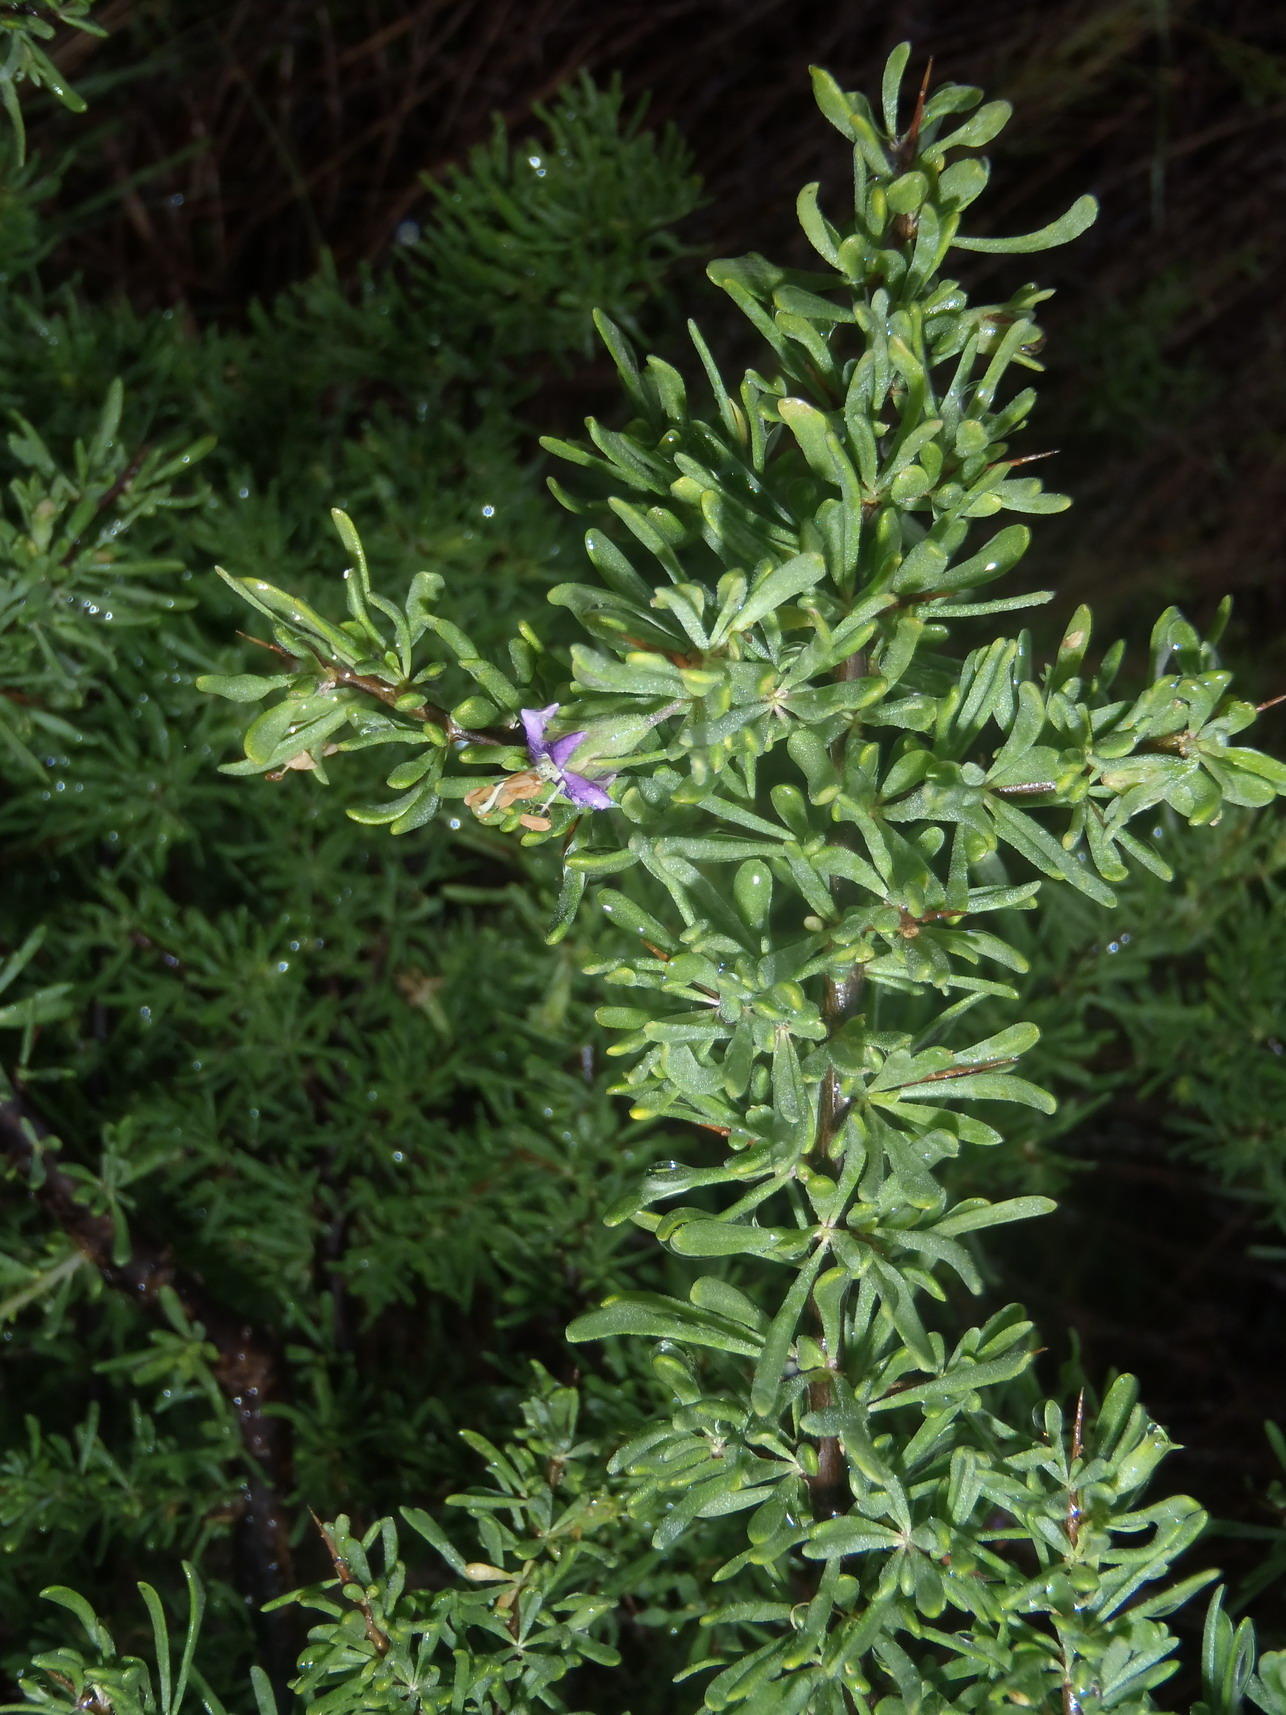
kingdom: Plantae
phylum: Tracheophyta
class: Magnoliopsida
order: Solanales
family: Solanaceae
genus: Lycium
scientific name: Lycium schizocalyx
